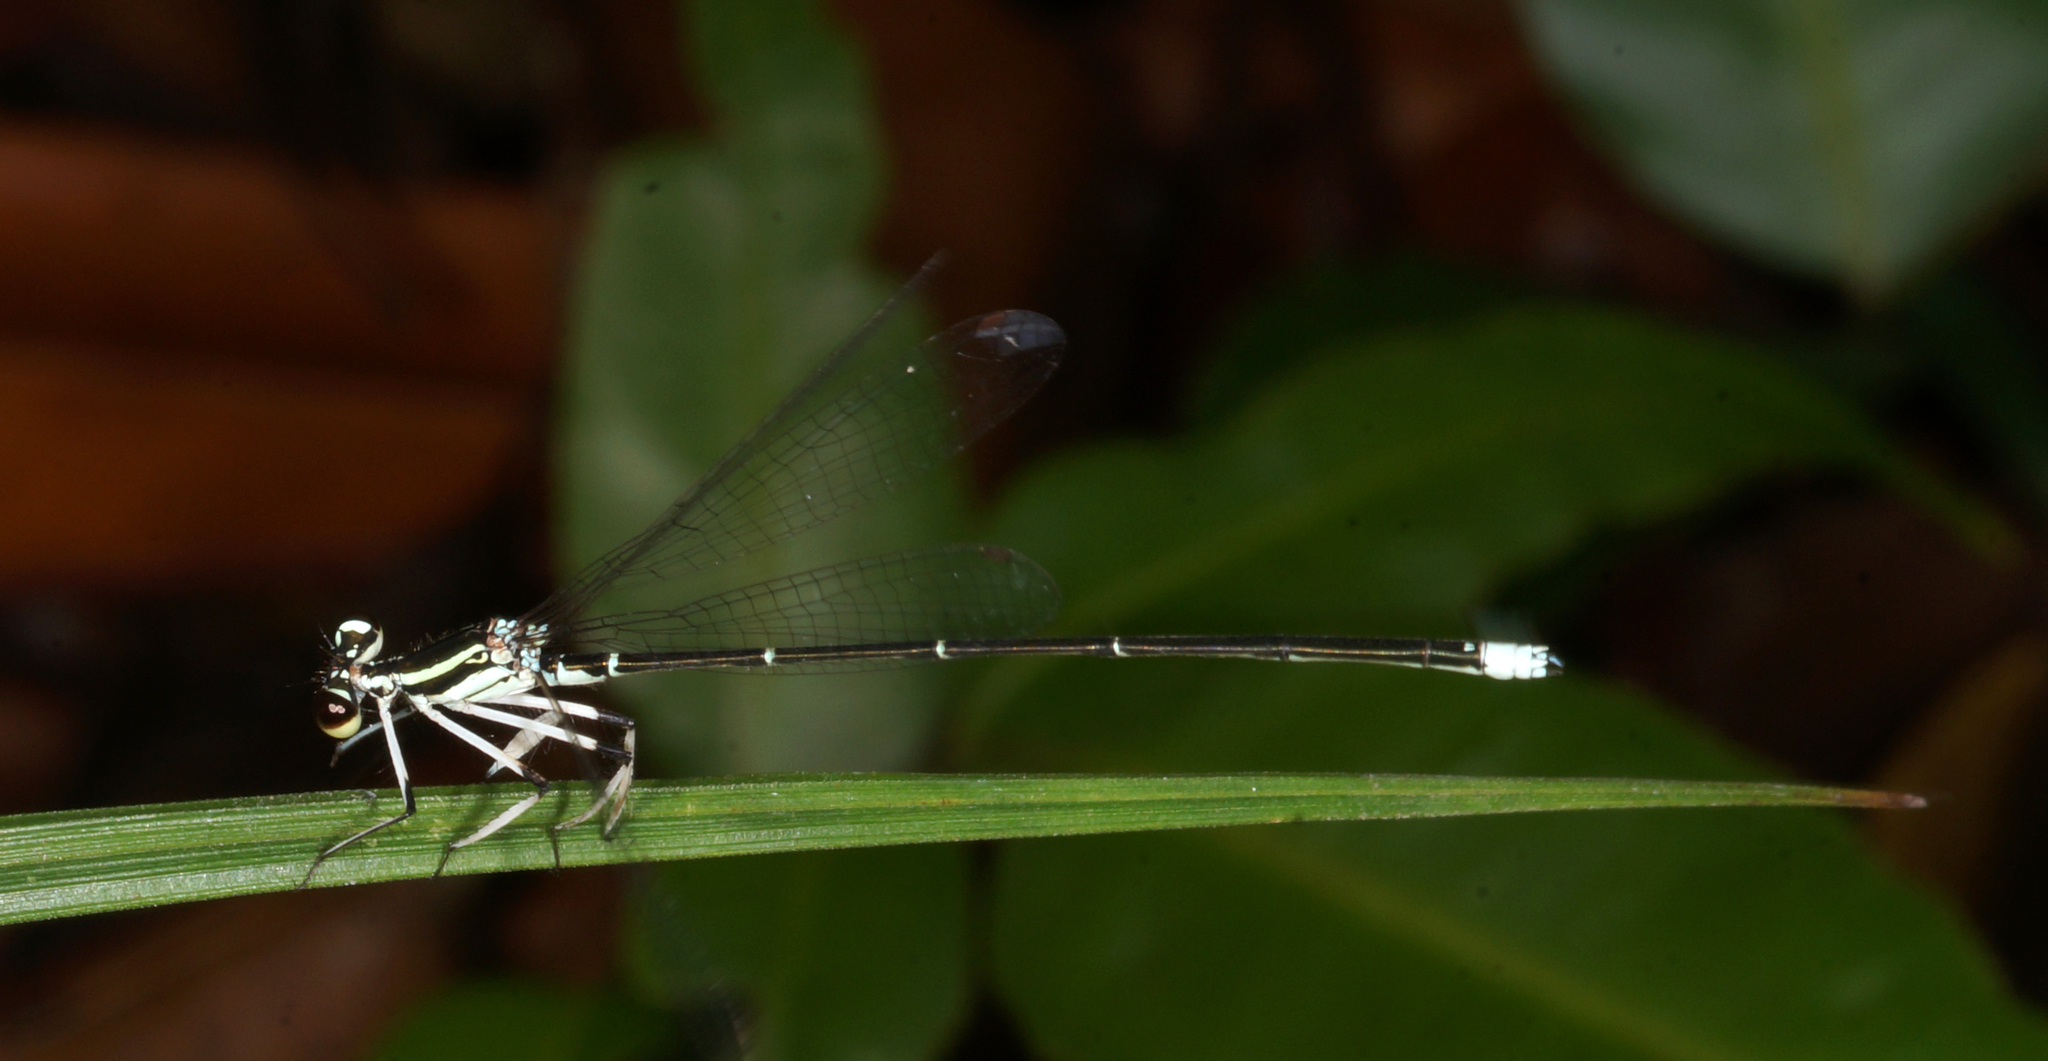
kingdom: Animalia
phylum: Arthropoda
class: Insecta
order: Odonata
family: Platycnemididae
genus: Pseudocopera
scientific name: Pseudocopera ciliata
